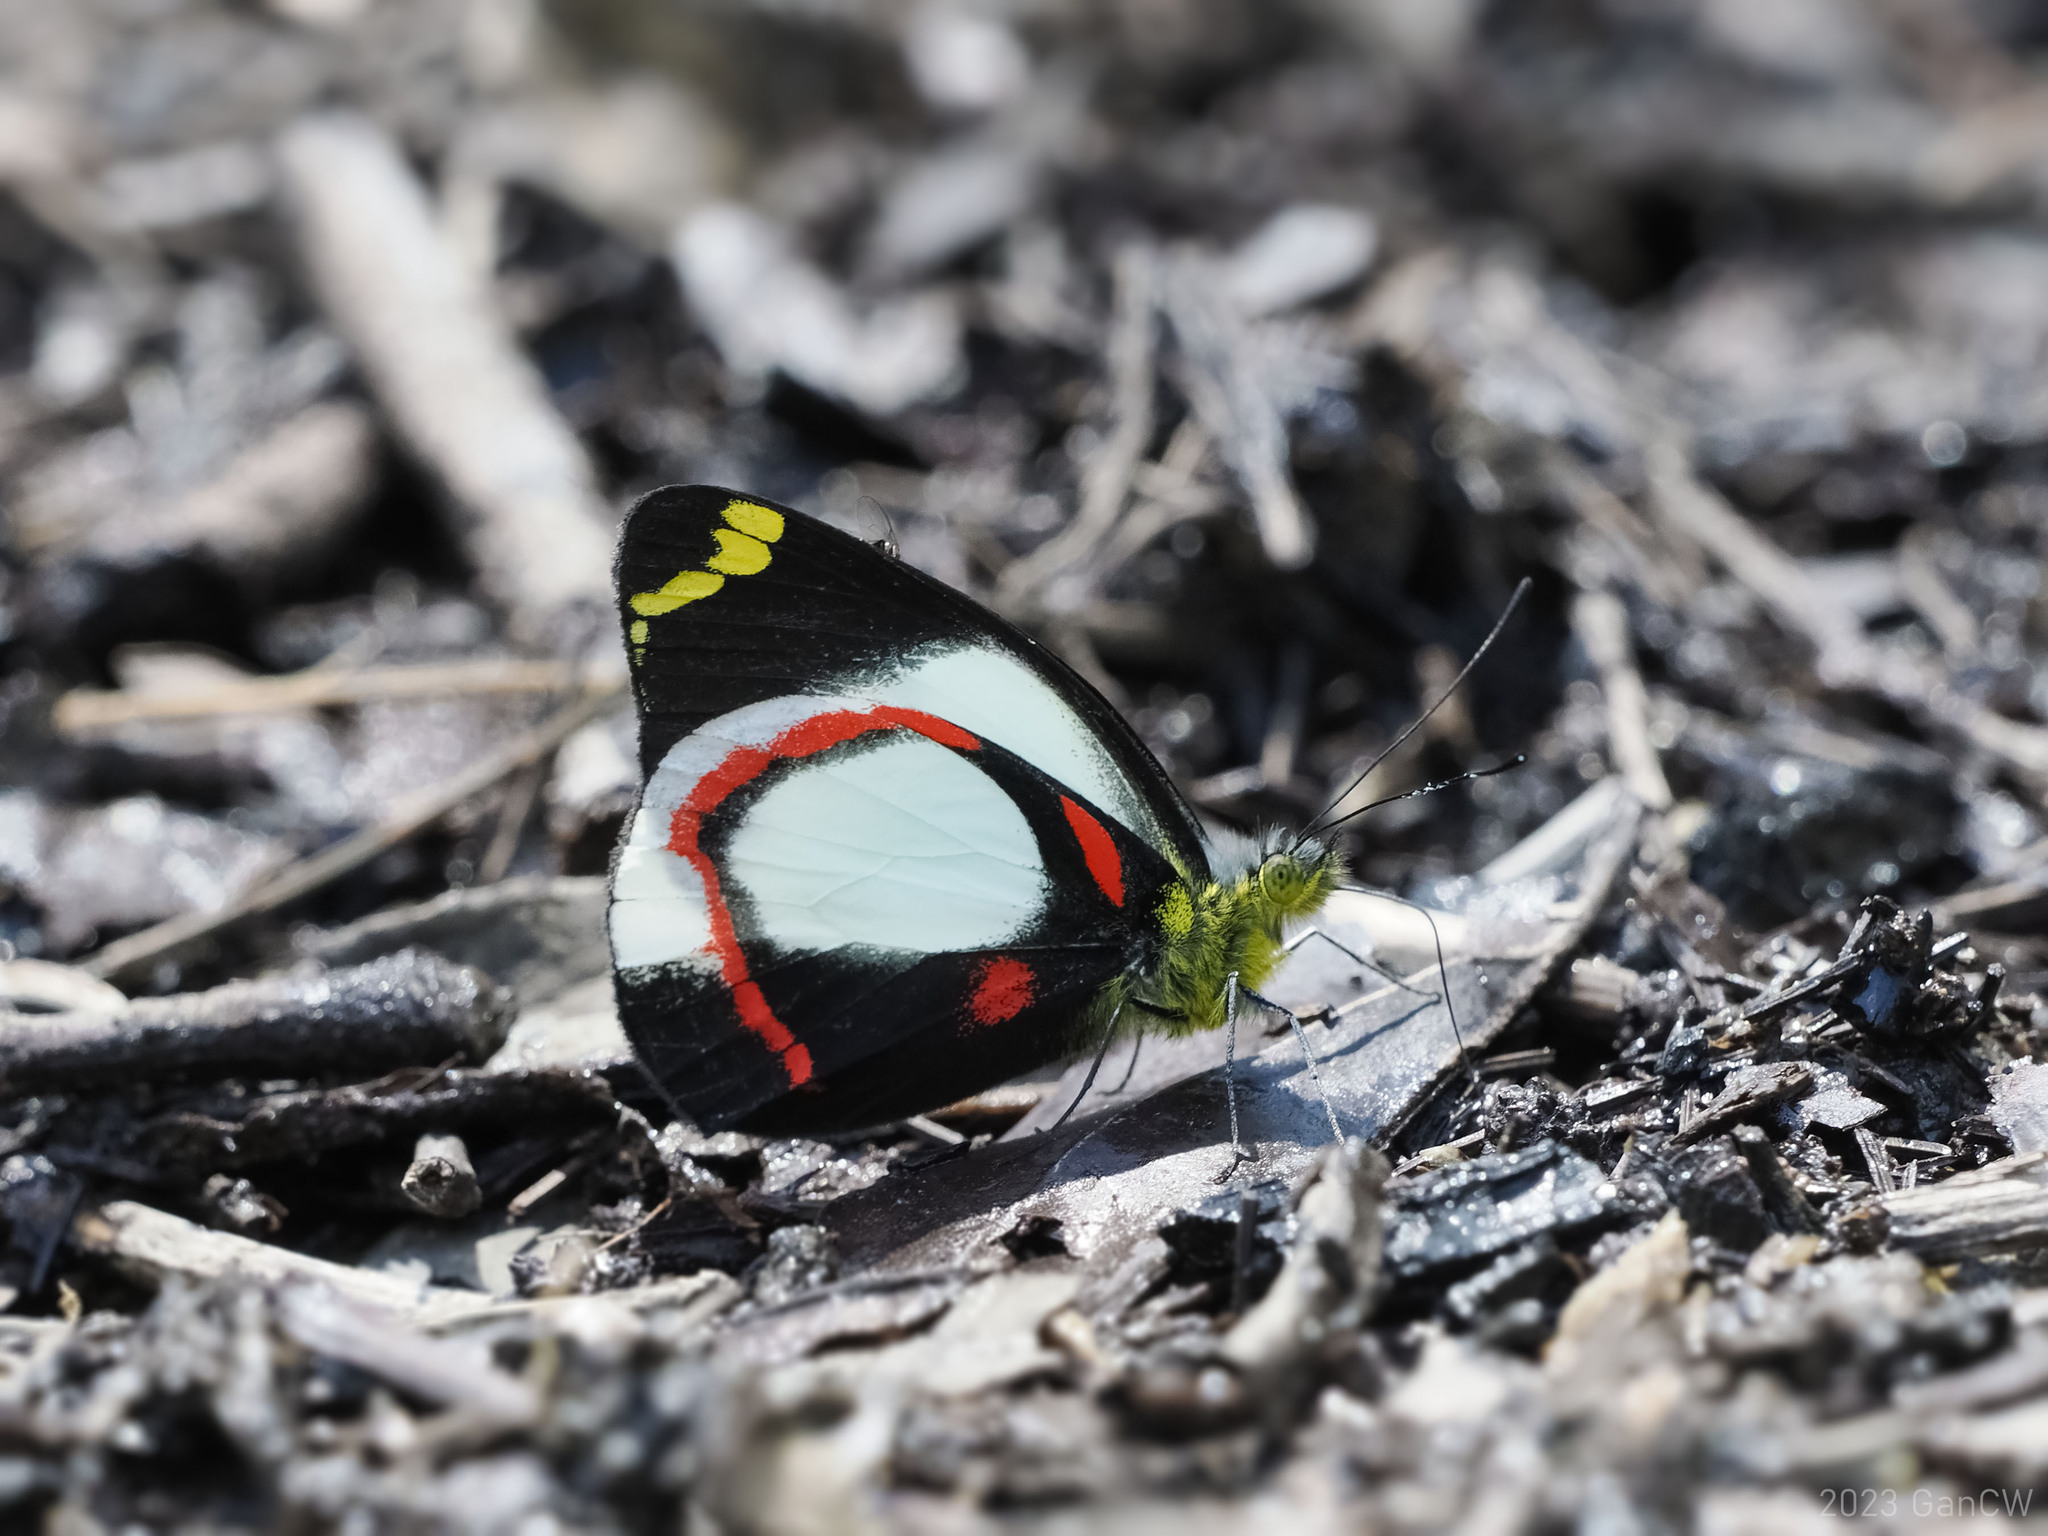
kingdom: Animalia
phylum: Arthropoda
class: Insecta
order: Lepidoptera
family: Pieridae
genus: Delias
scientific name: Delias ligata
